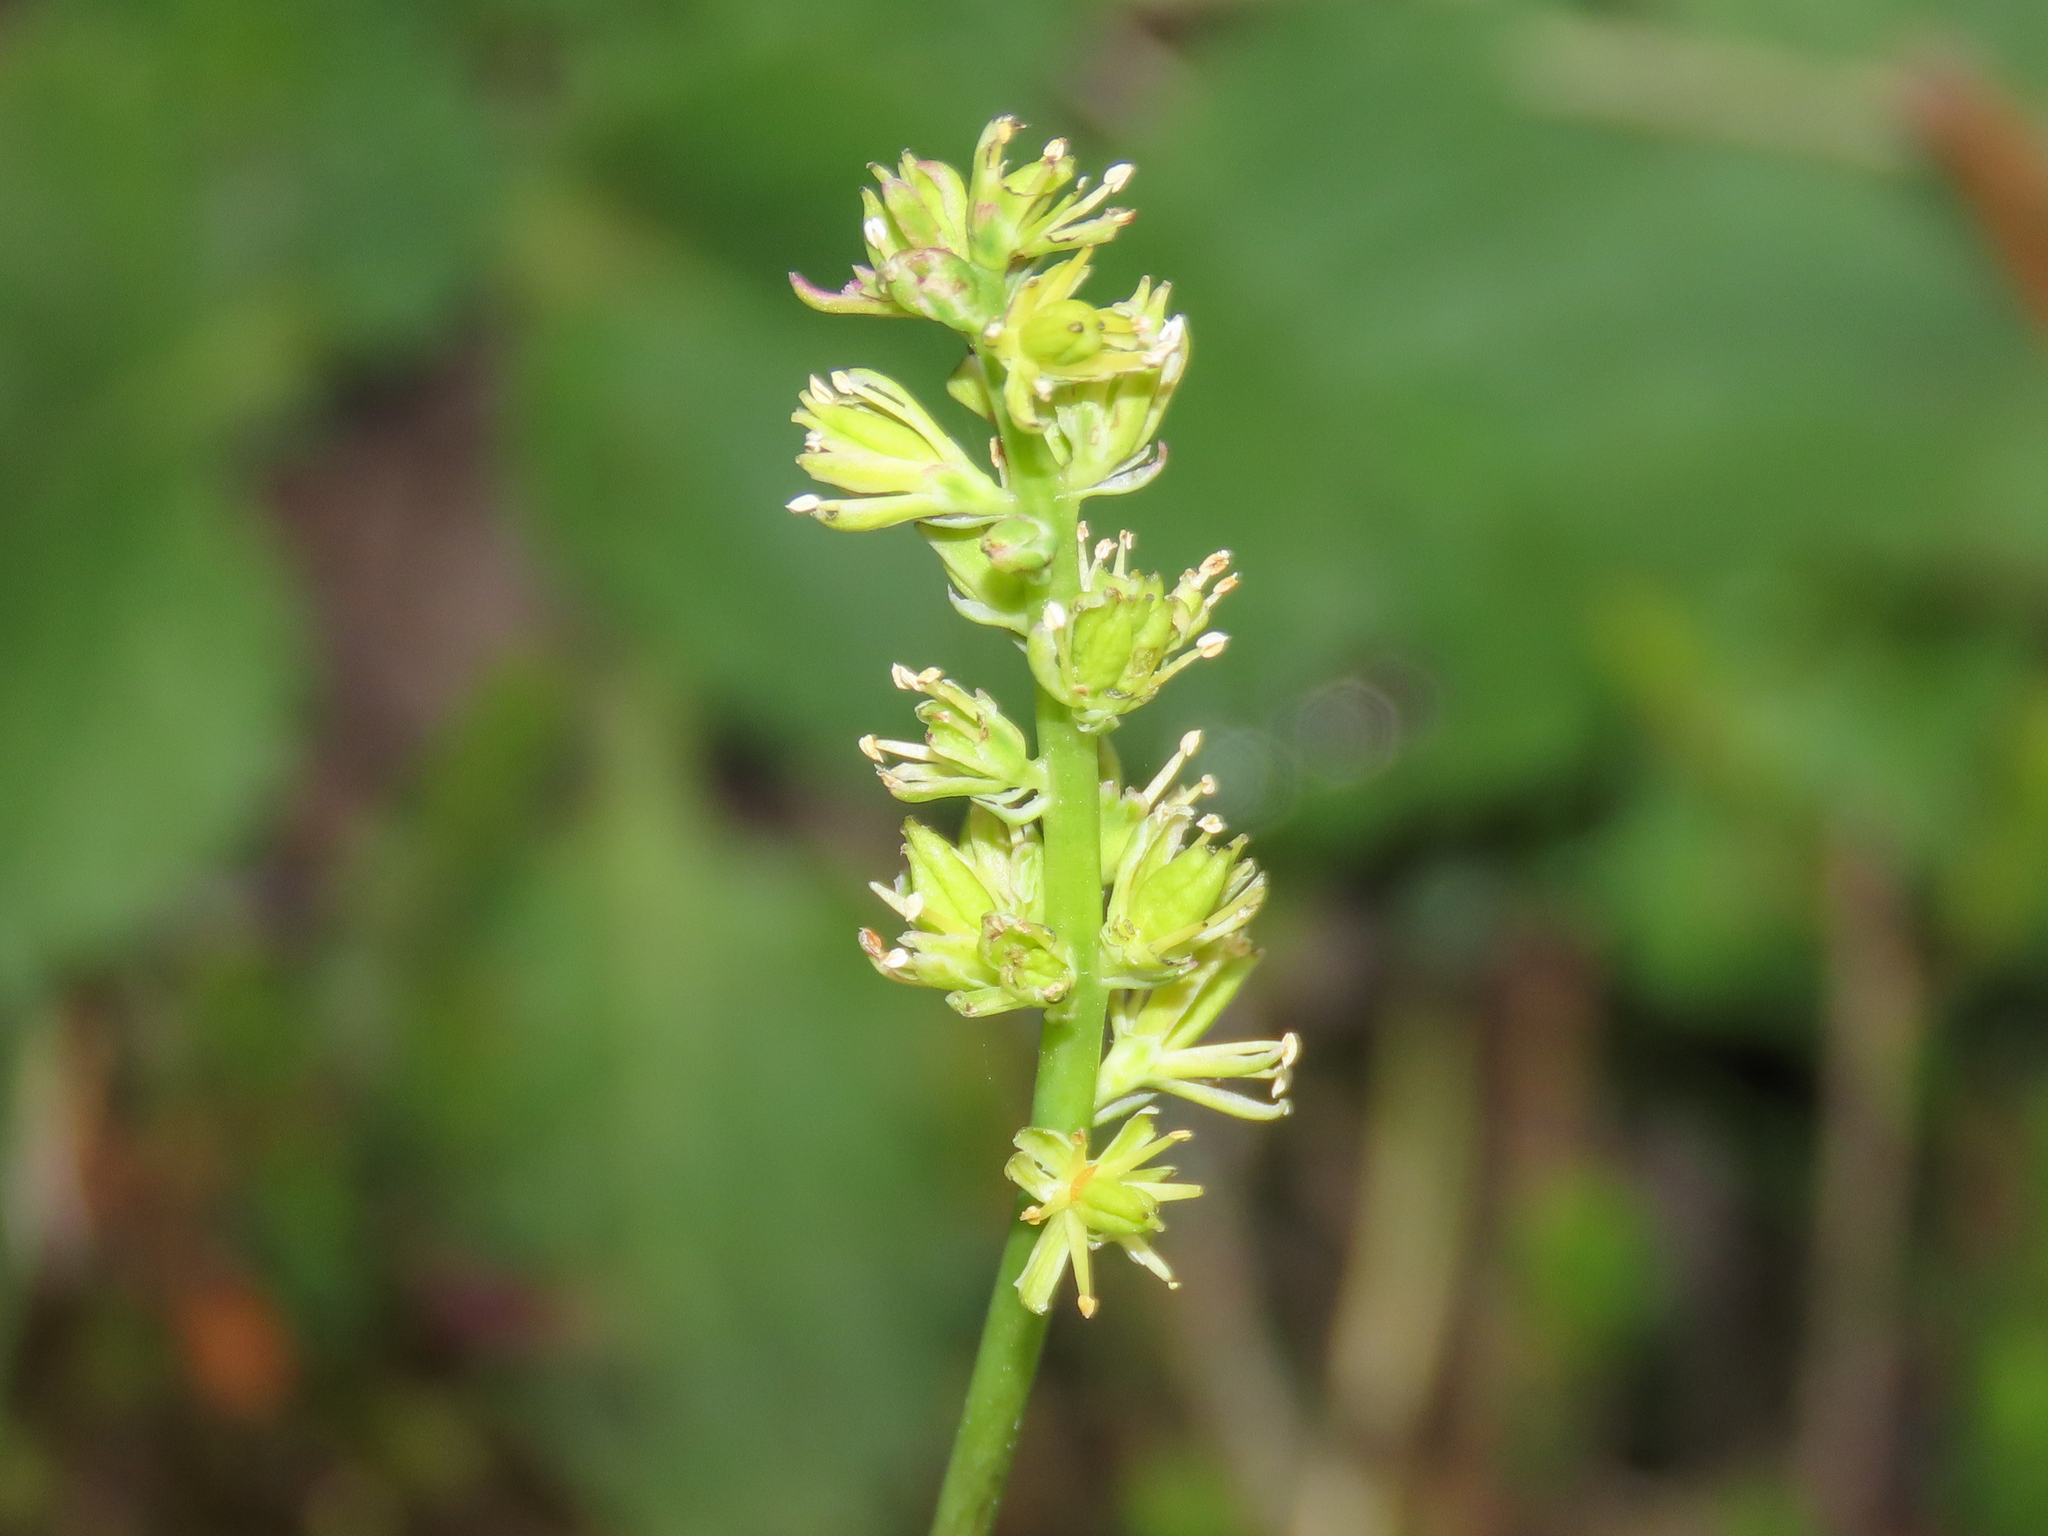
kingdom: Plantae
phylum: Tracheophyta
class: Liliopsida
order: Alismatales
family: Tofieldiaceae
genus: Tofieldia
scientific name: Tofieldia calyculata
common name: German-asphodel
